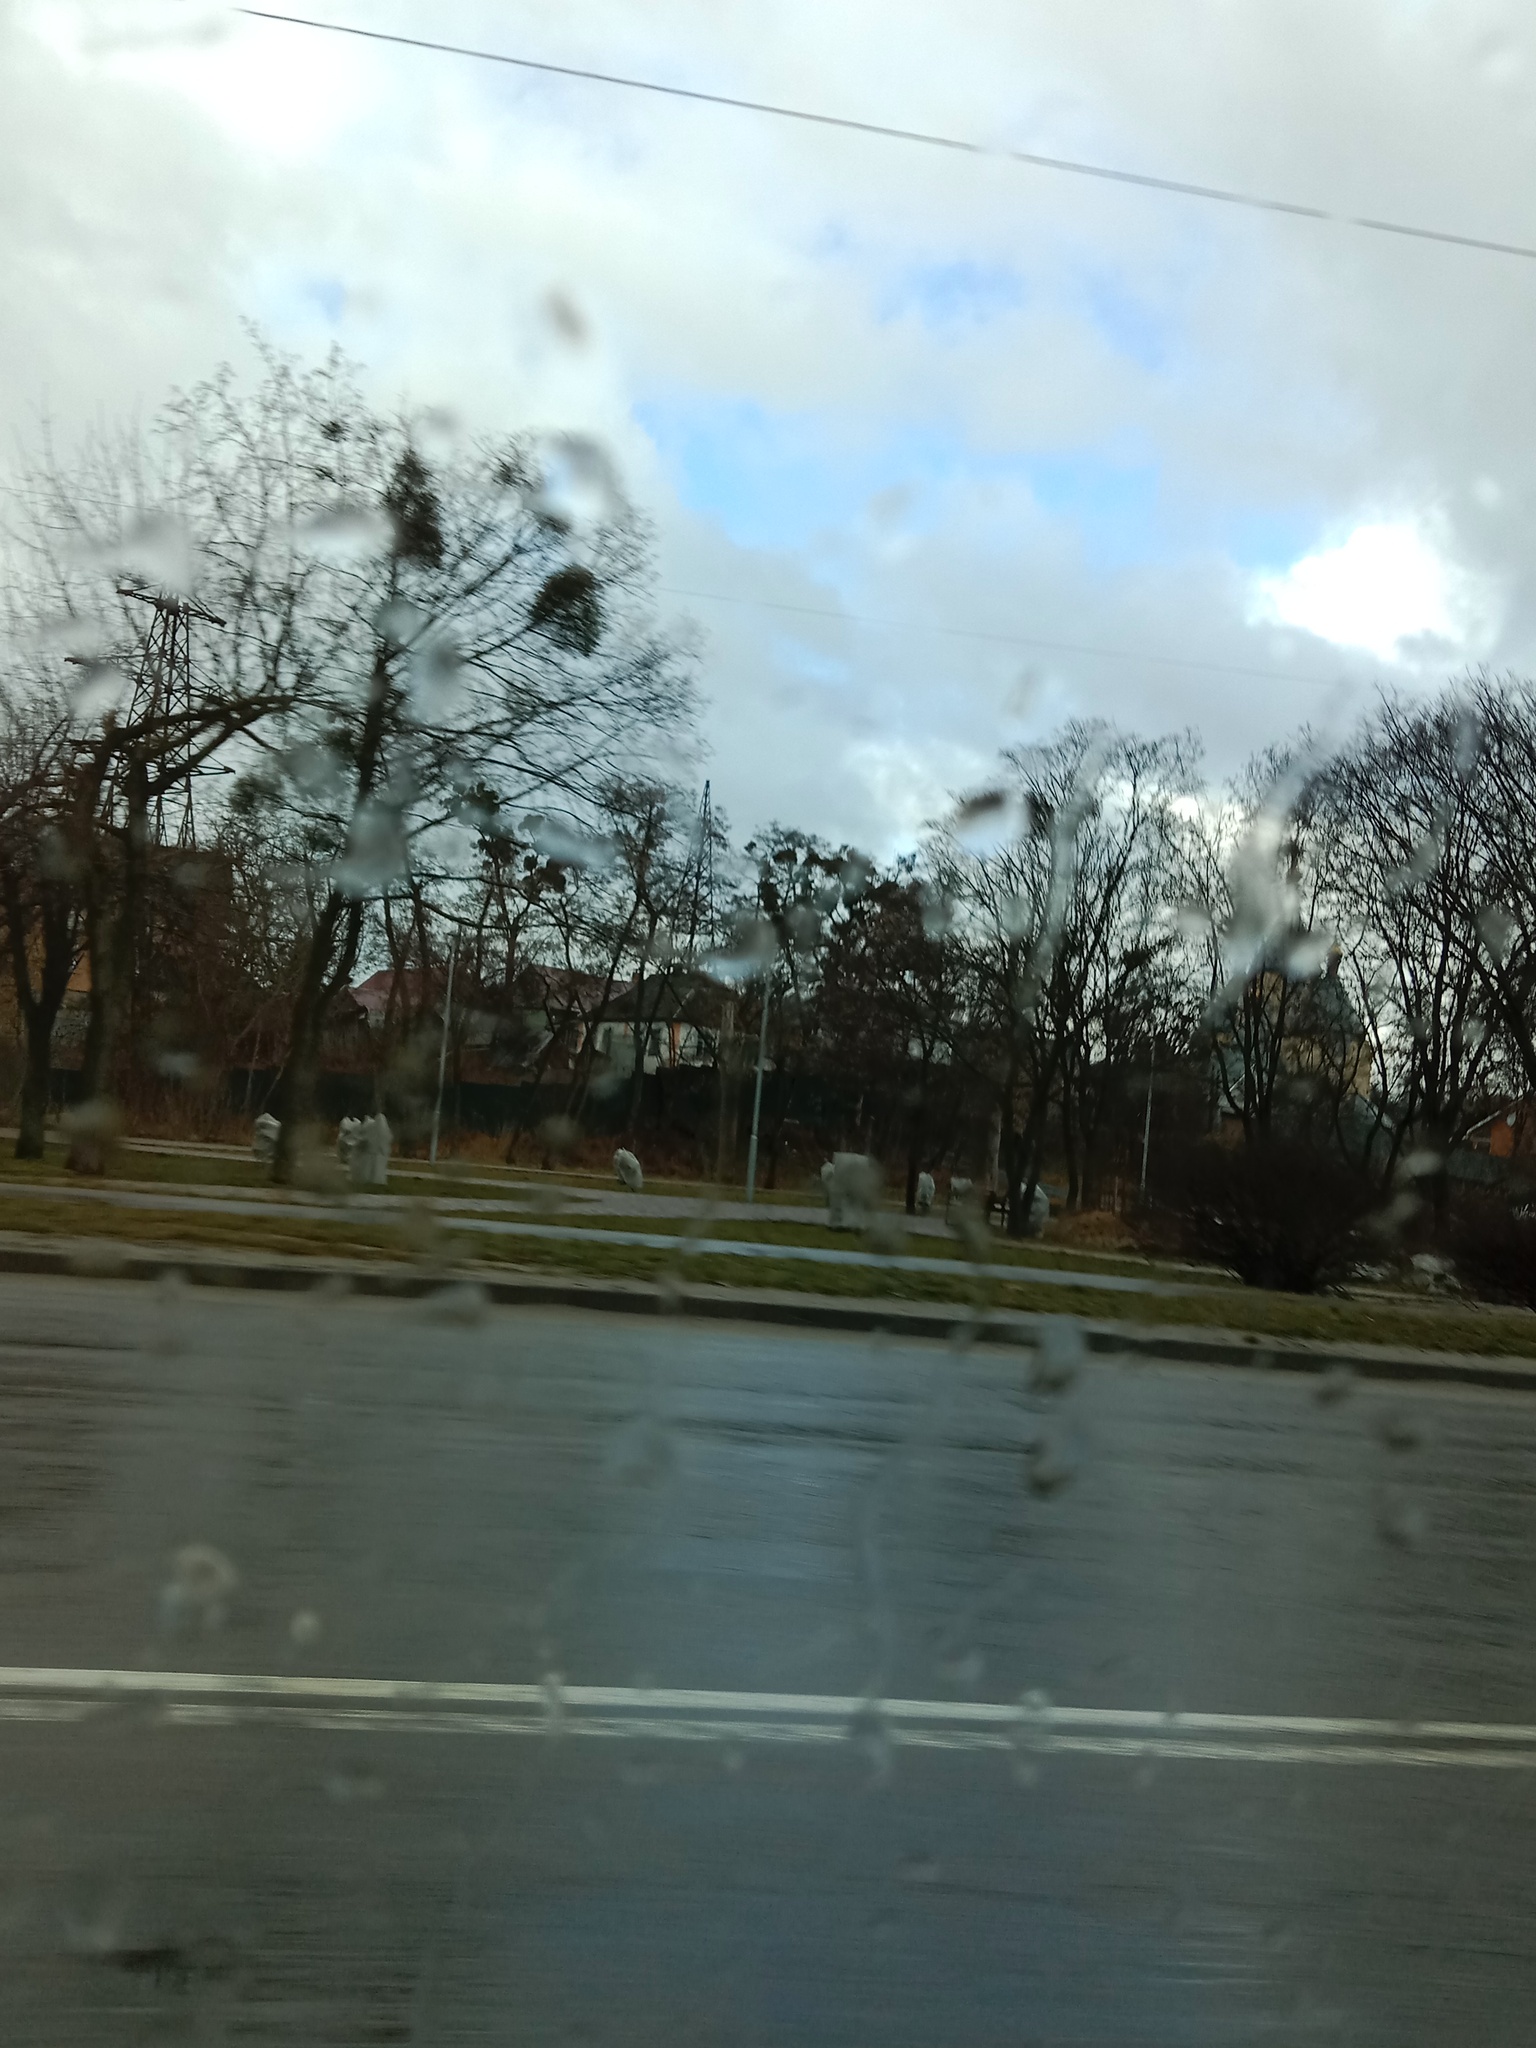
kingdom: Plantae
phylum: Tracheophyta
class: Magnoliopsida
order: Santalales
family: Viscaceae
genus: Viscum
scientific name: Viscum album
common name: Mistletoe
